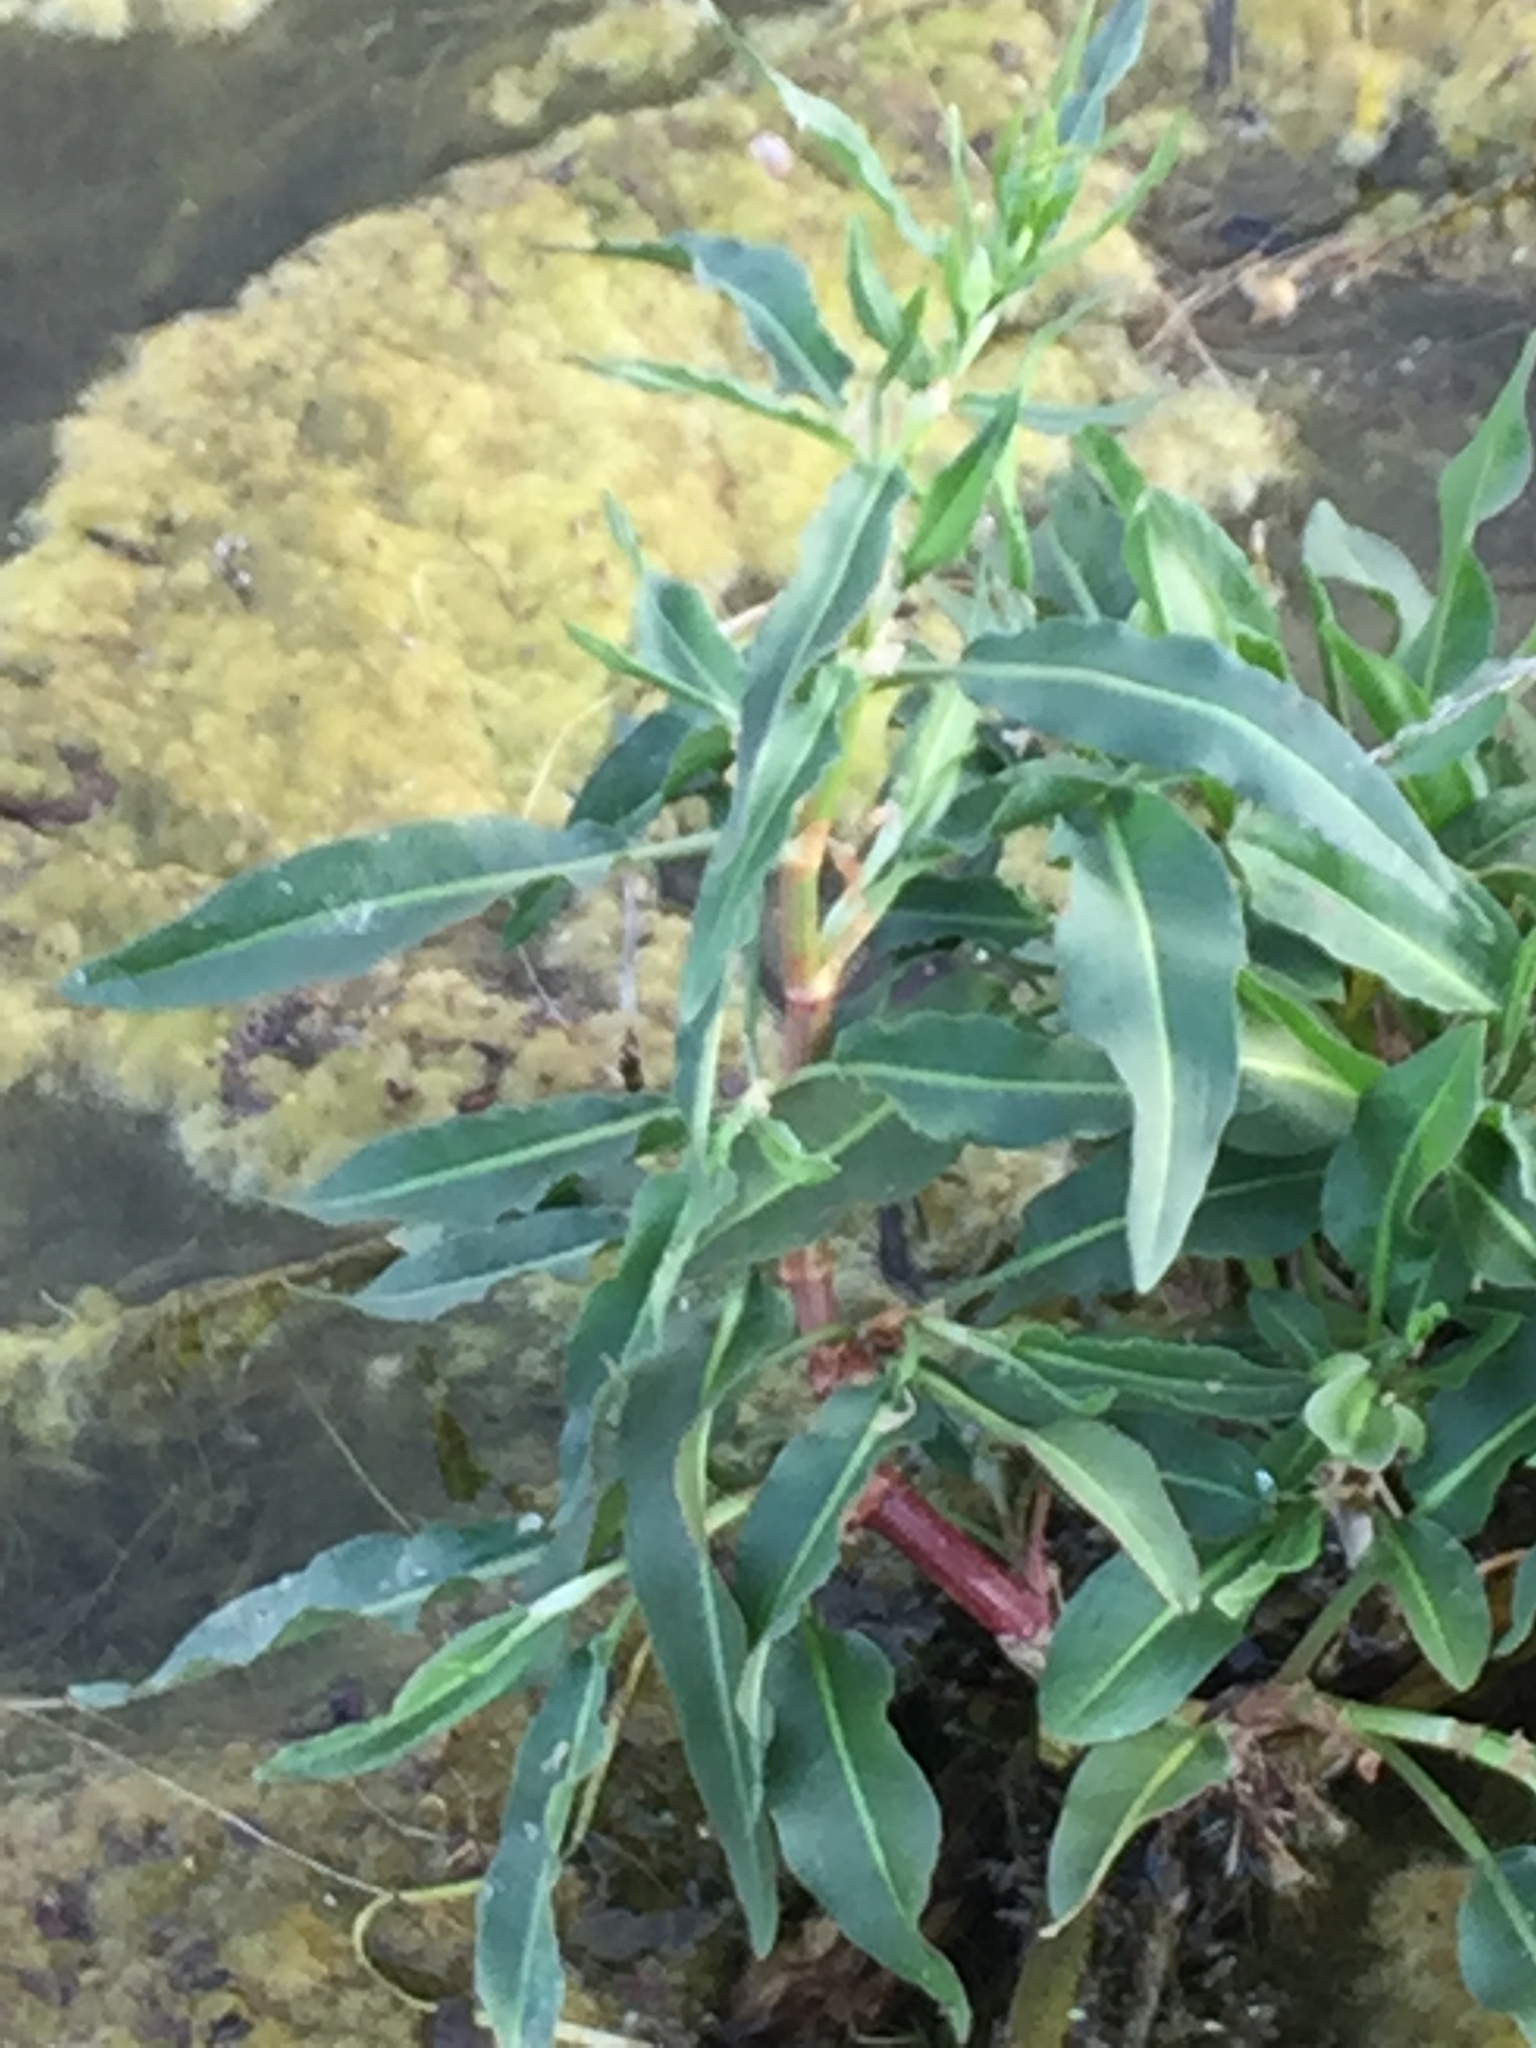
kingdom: Plantae
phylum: Tracheophyta
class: Magnoliopsida
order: Caryophyllales
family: Polygonaceae
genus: Rumex
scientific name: Rumex salicifolius
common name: Willow-leaved dock
